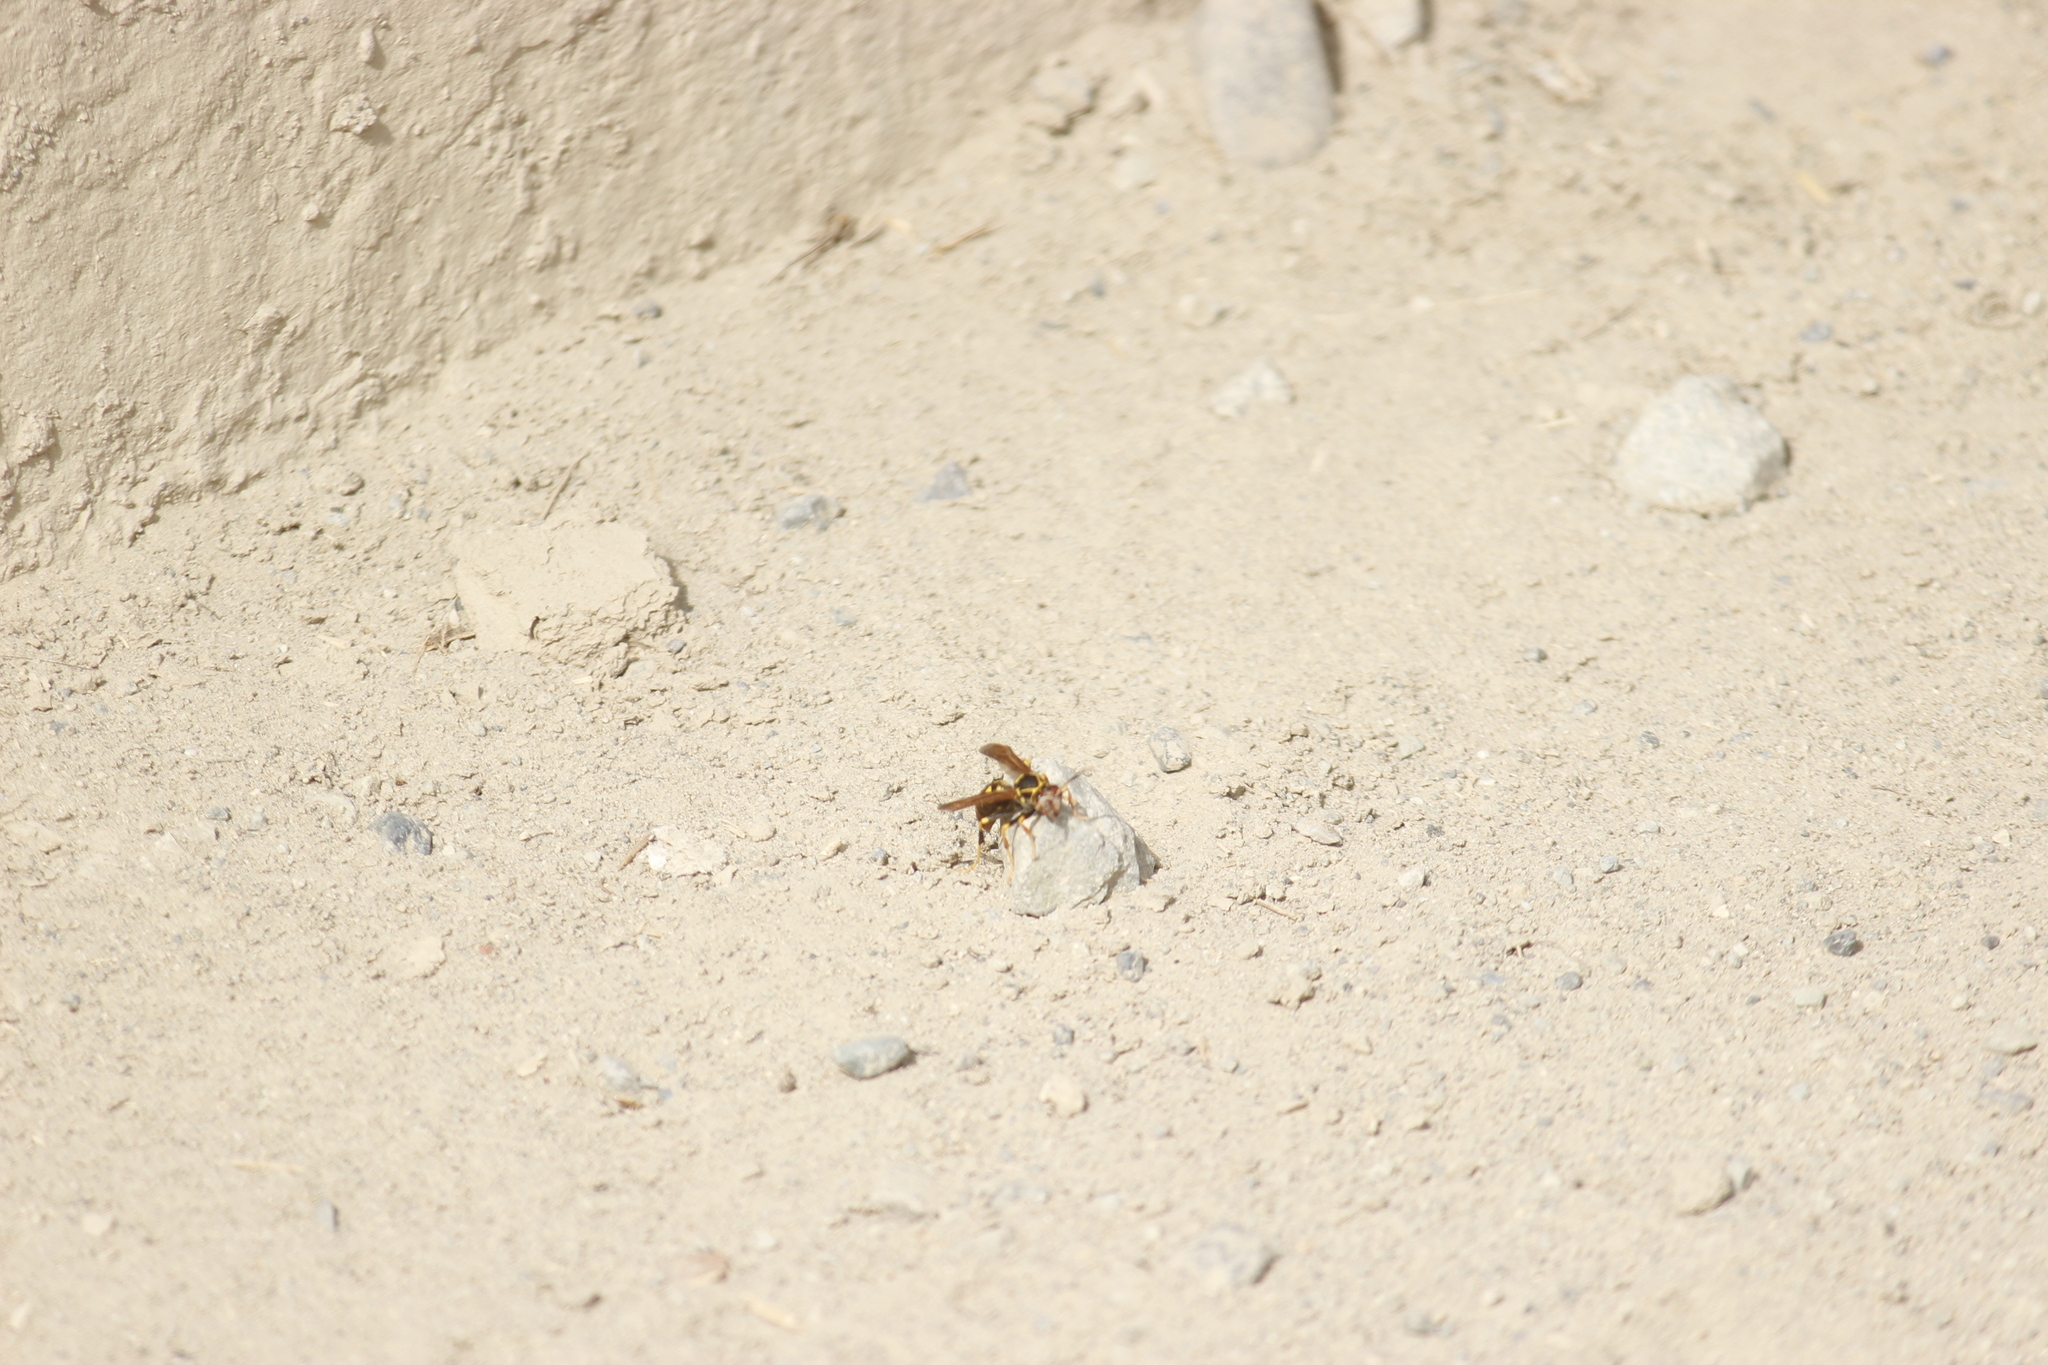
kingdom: Animalia
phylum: Arthropoda
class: Insecta
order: Hymenoptera
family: Pompilidae
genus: Aphanilopterus
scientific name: Aphanilopterus
